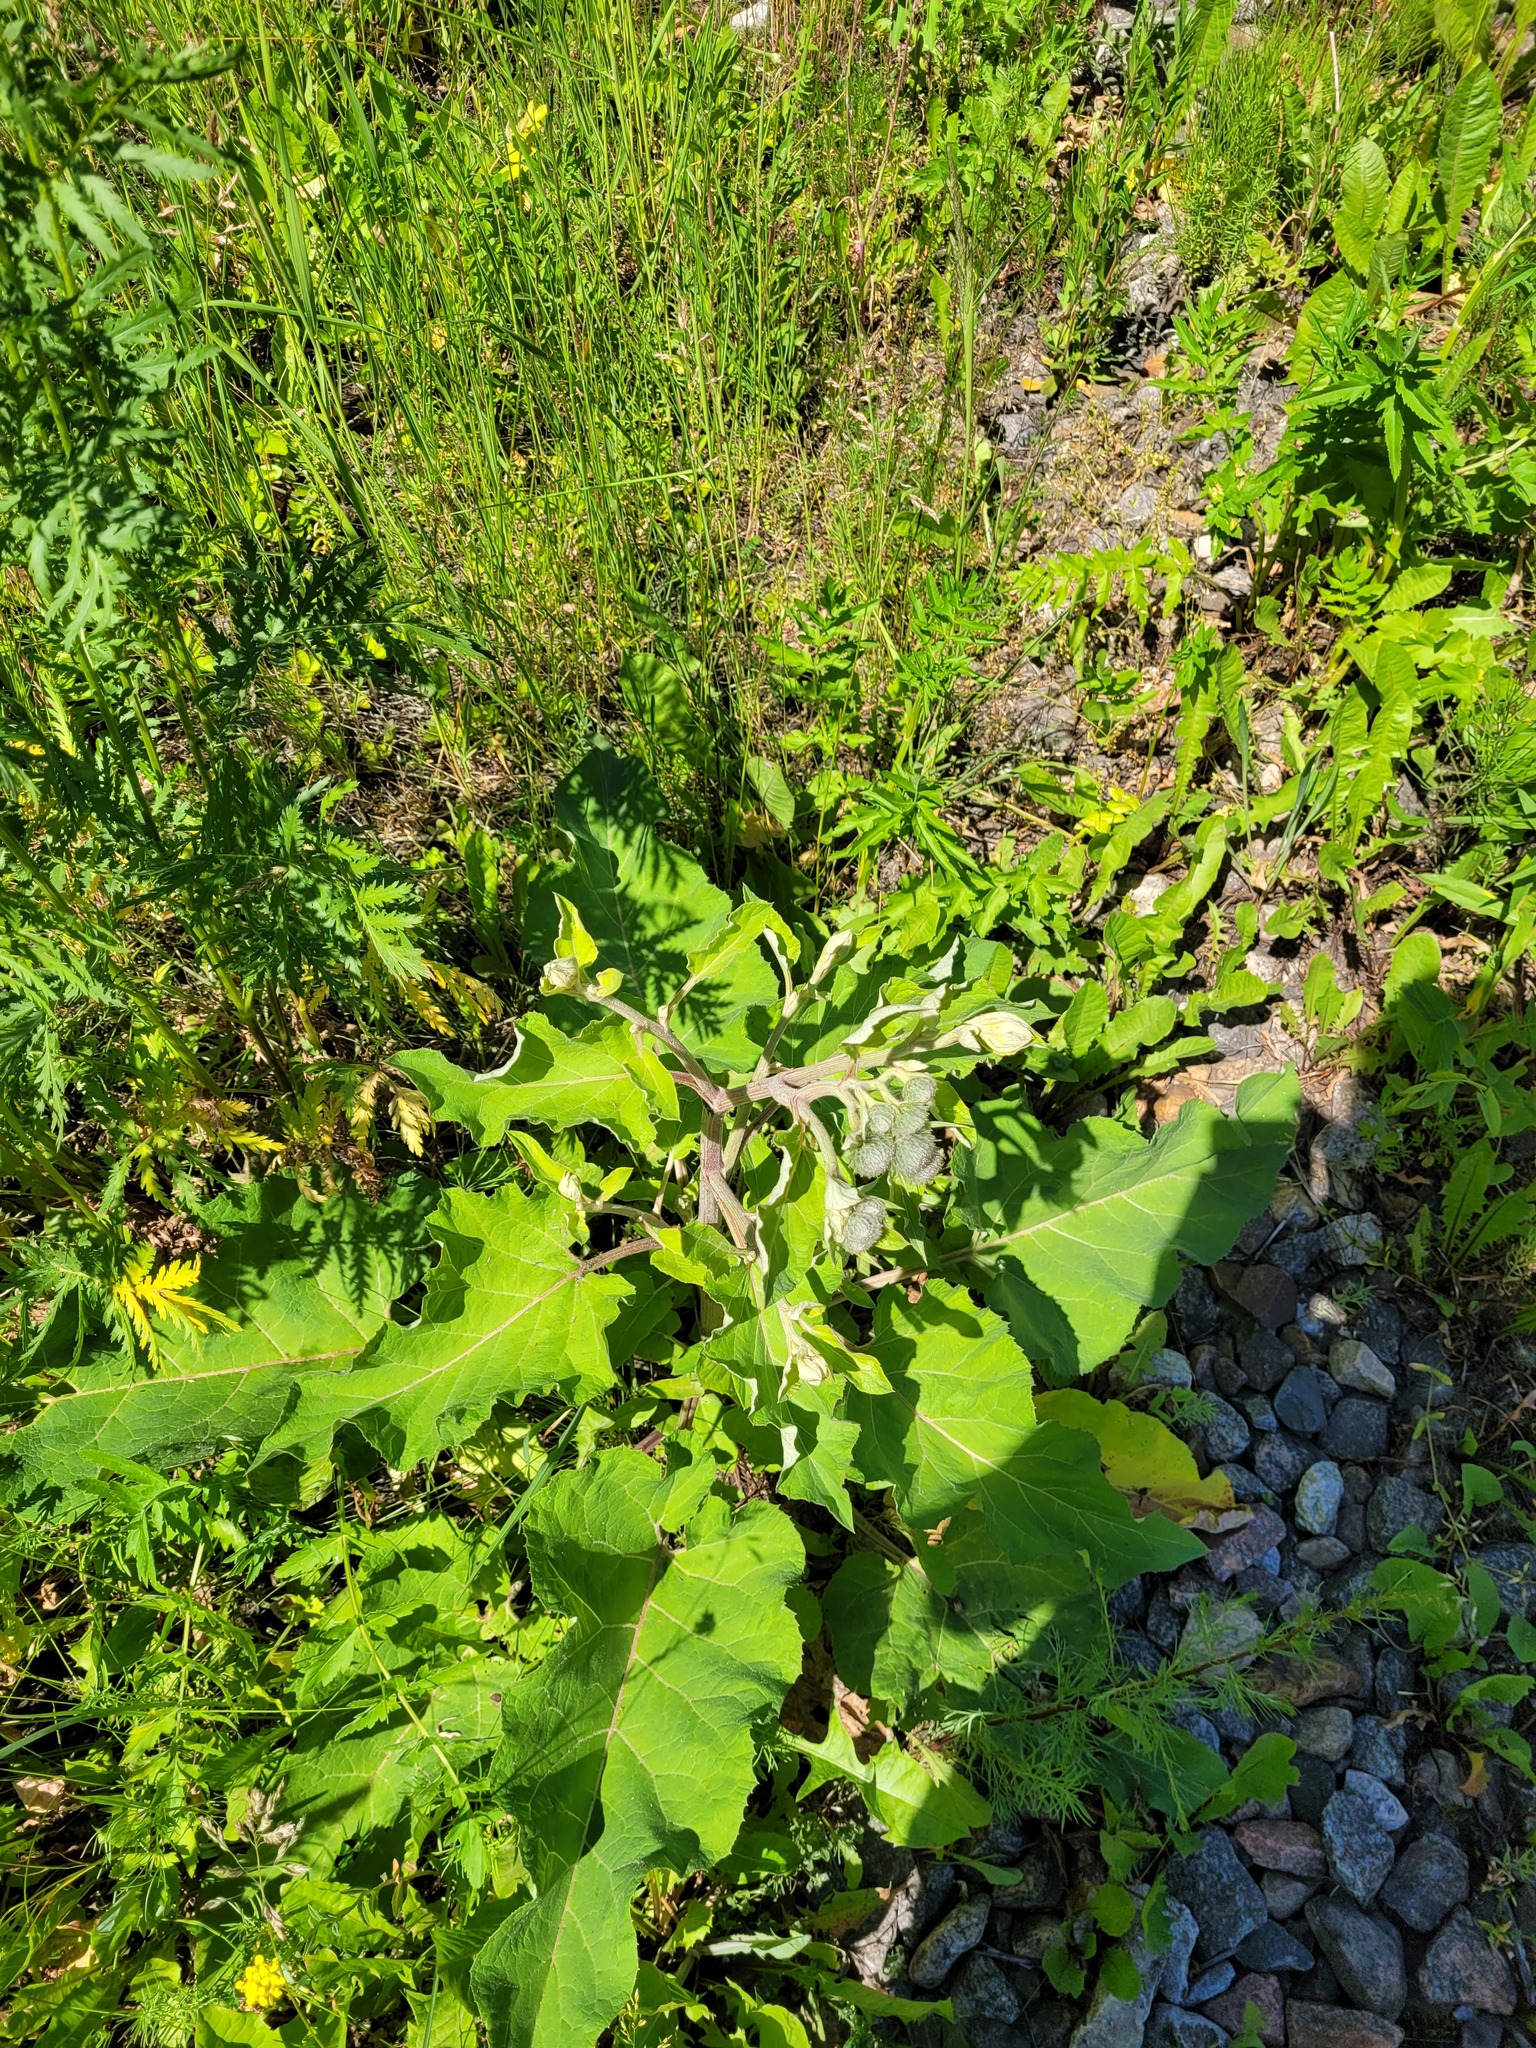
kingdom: Plantae
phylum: Tracheophyta
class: Magnoliopsida
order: Asterales
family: Asteraceae
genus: Arctium
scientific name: Arctium tomentosum
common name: Woolly burdock
